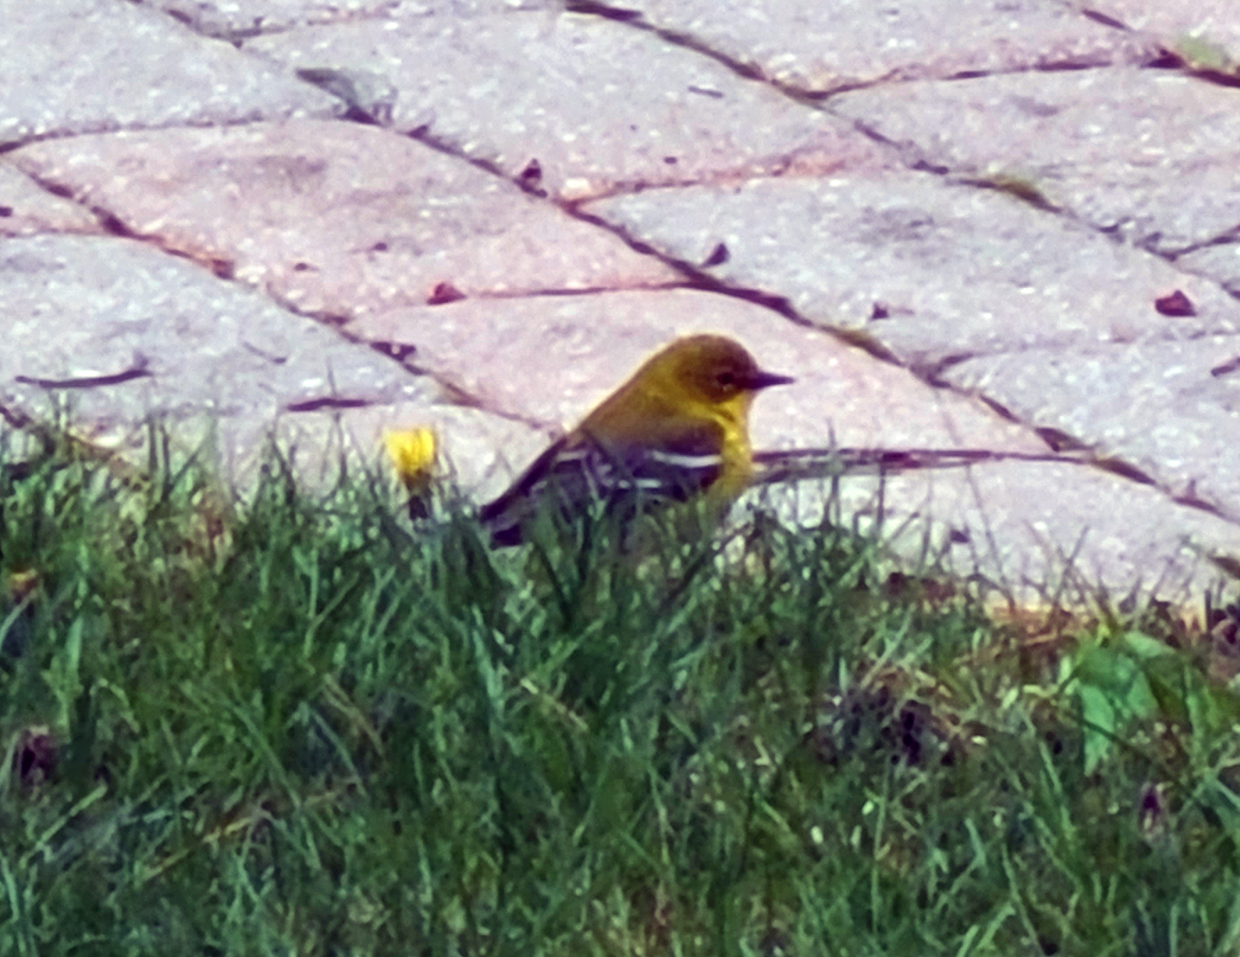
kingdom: Animalia
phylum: Chordata
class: Aves
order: Passeriformes
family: Parulidae
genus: Setophaga
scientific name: Setophaga pinus
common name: Pine warbler
